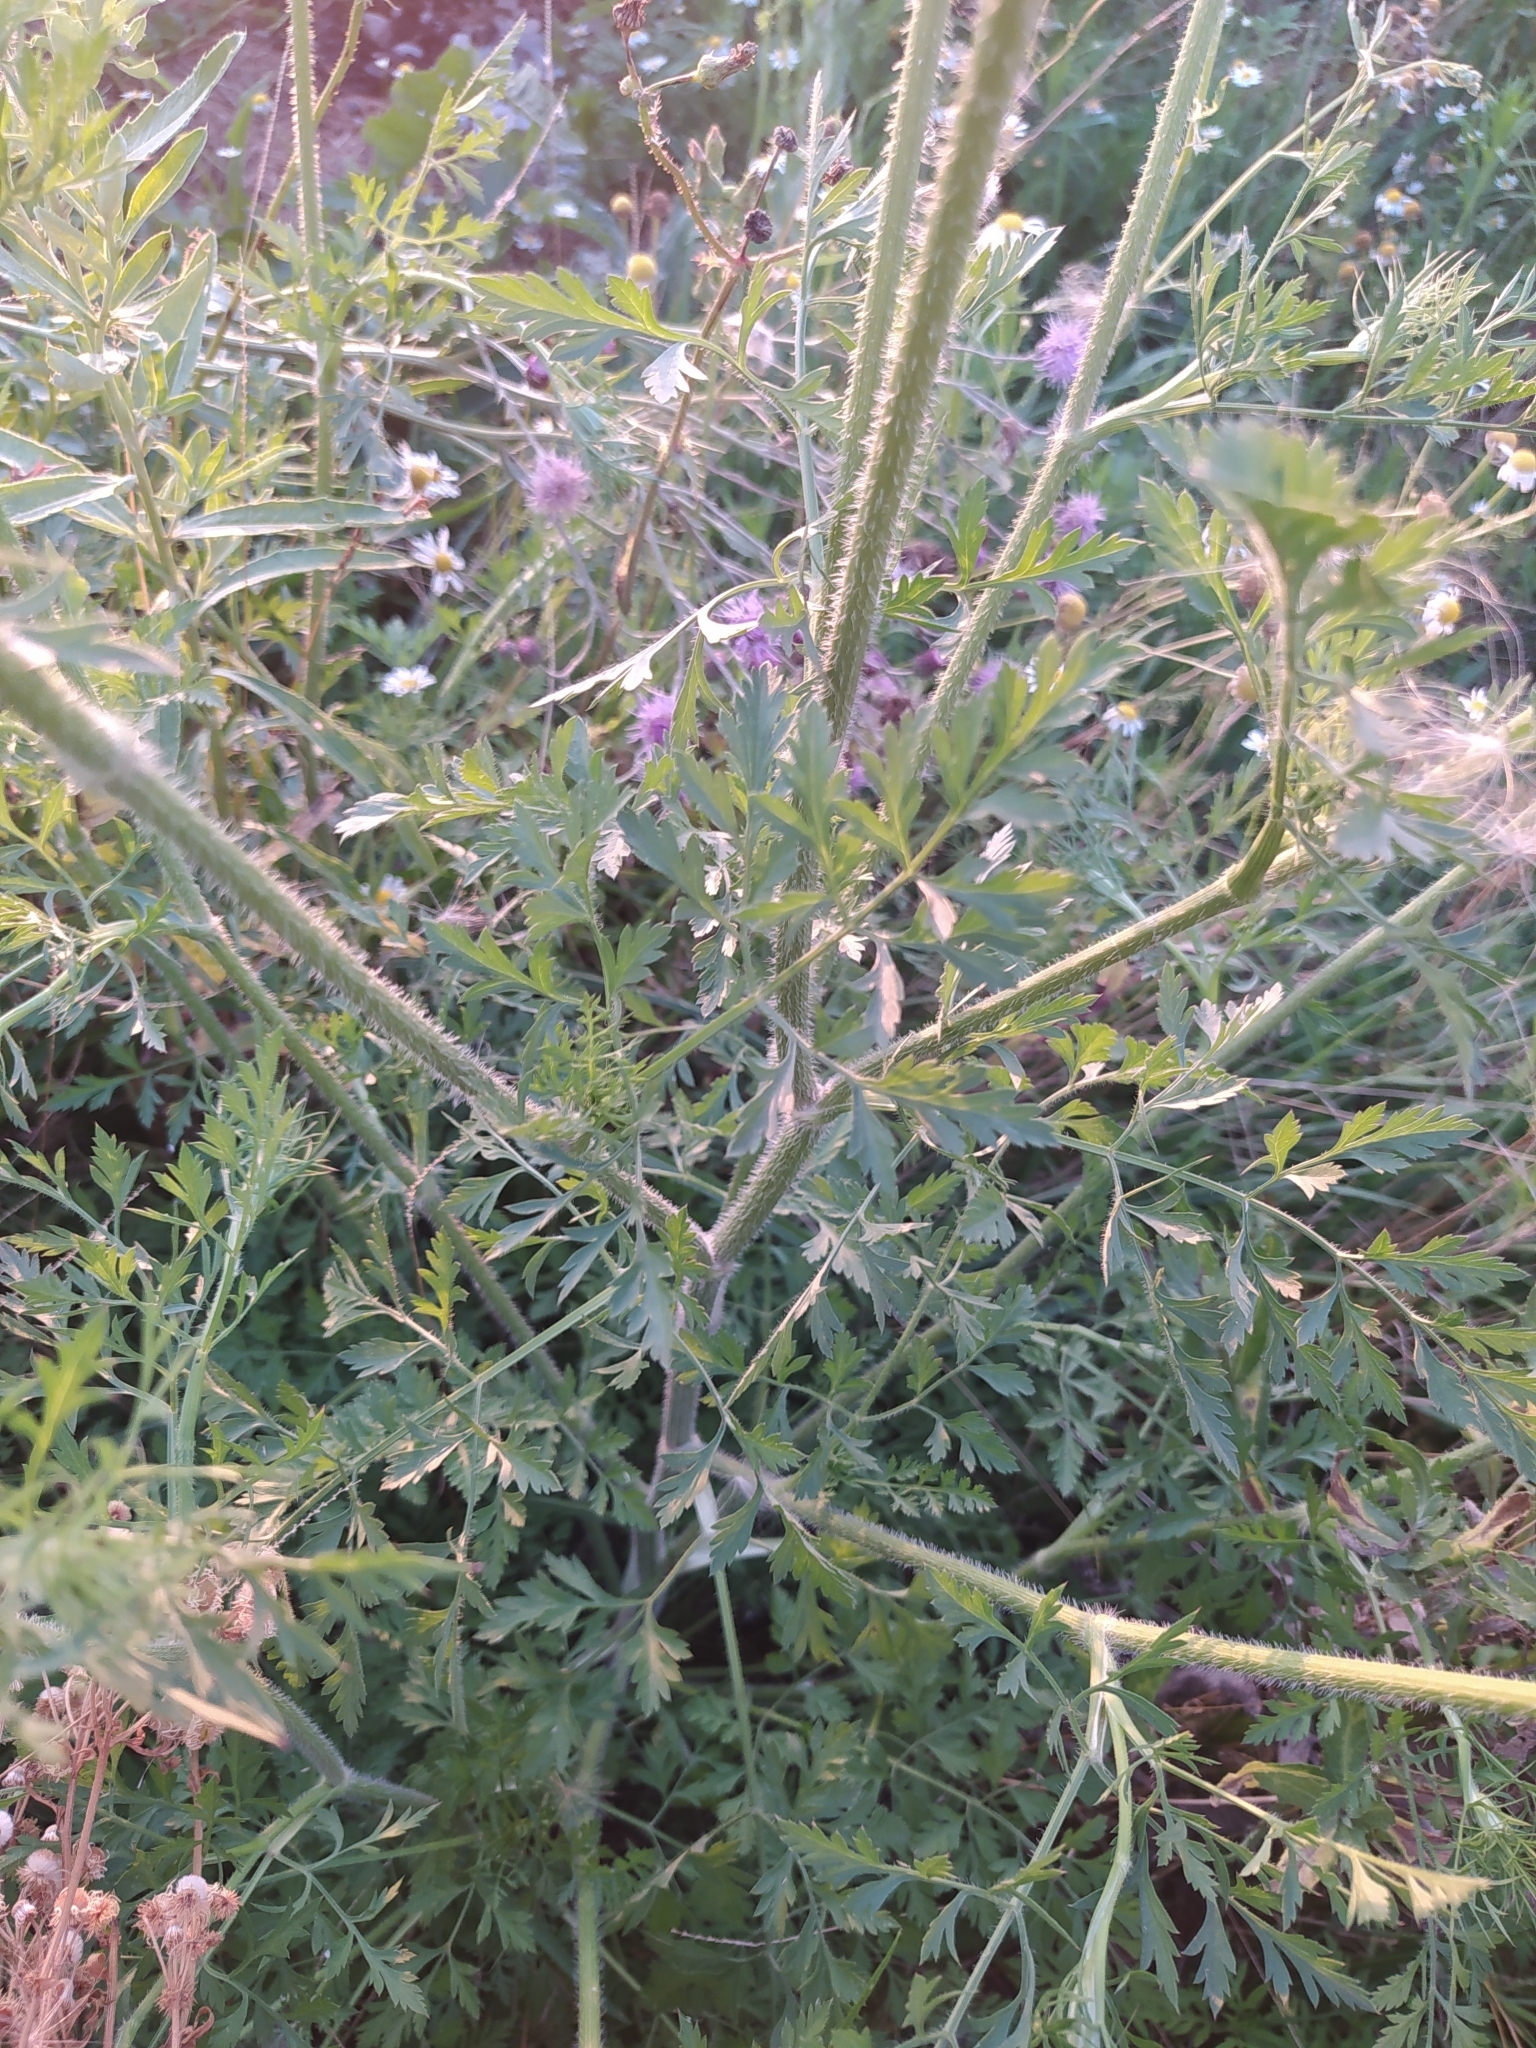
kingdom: Plantae
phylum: Tracheophyta
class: Magnoliopsida
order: Apiales
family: Apiaceae
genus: Daucus
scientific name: Daucus carota
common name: Wild carrot
